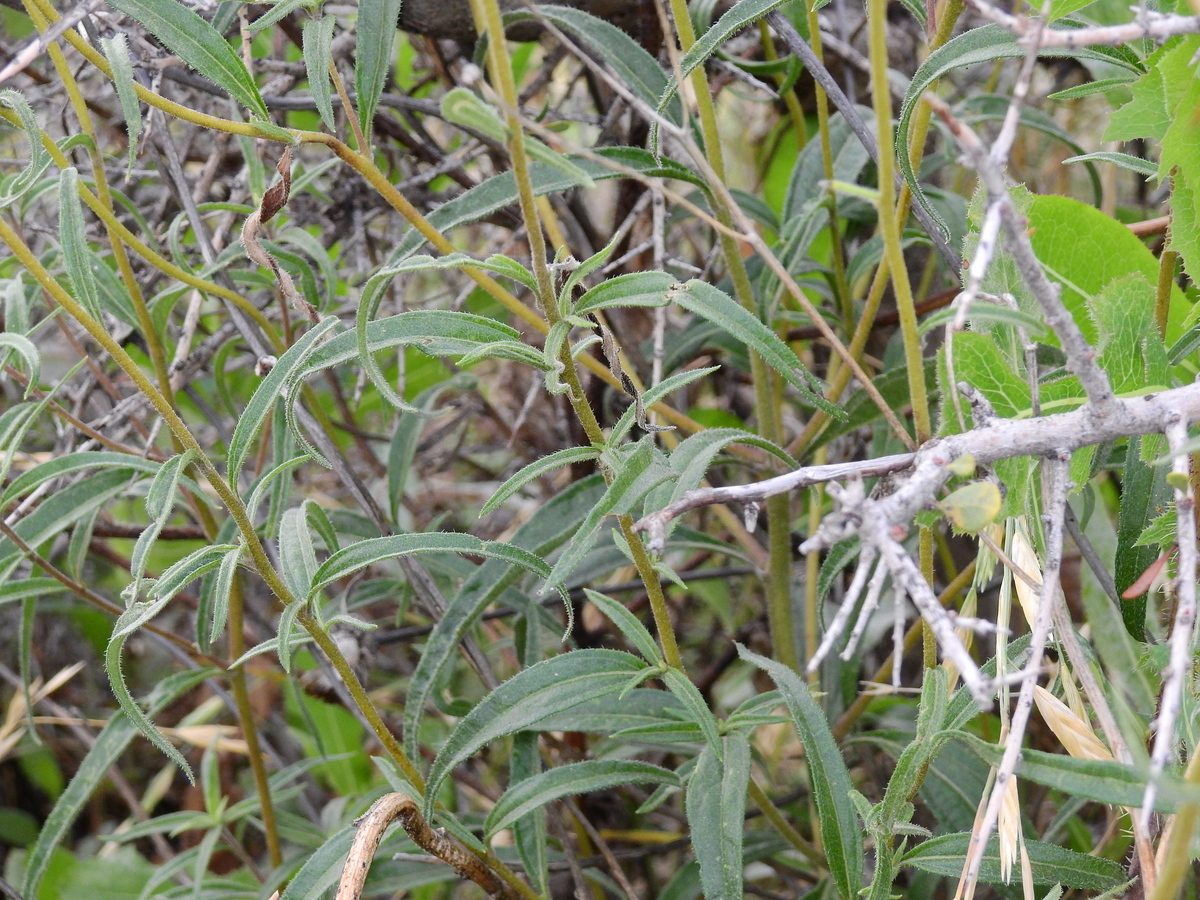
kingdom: Plantae
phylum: Tracheophyta
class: Magnoliopsida
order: Asterales
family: Asteraceae
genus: Aldama
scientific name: Aldama gilliesii
